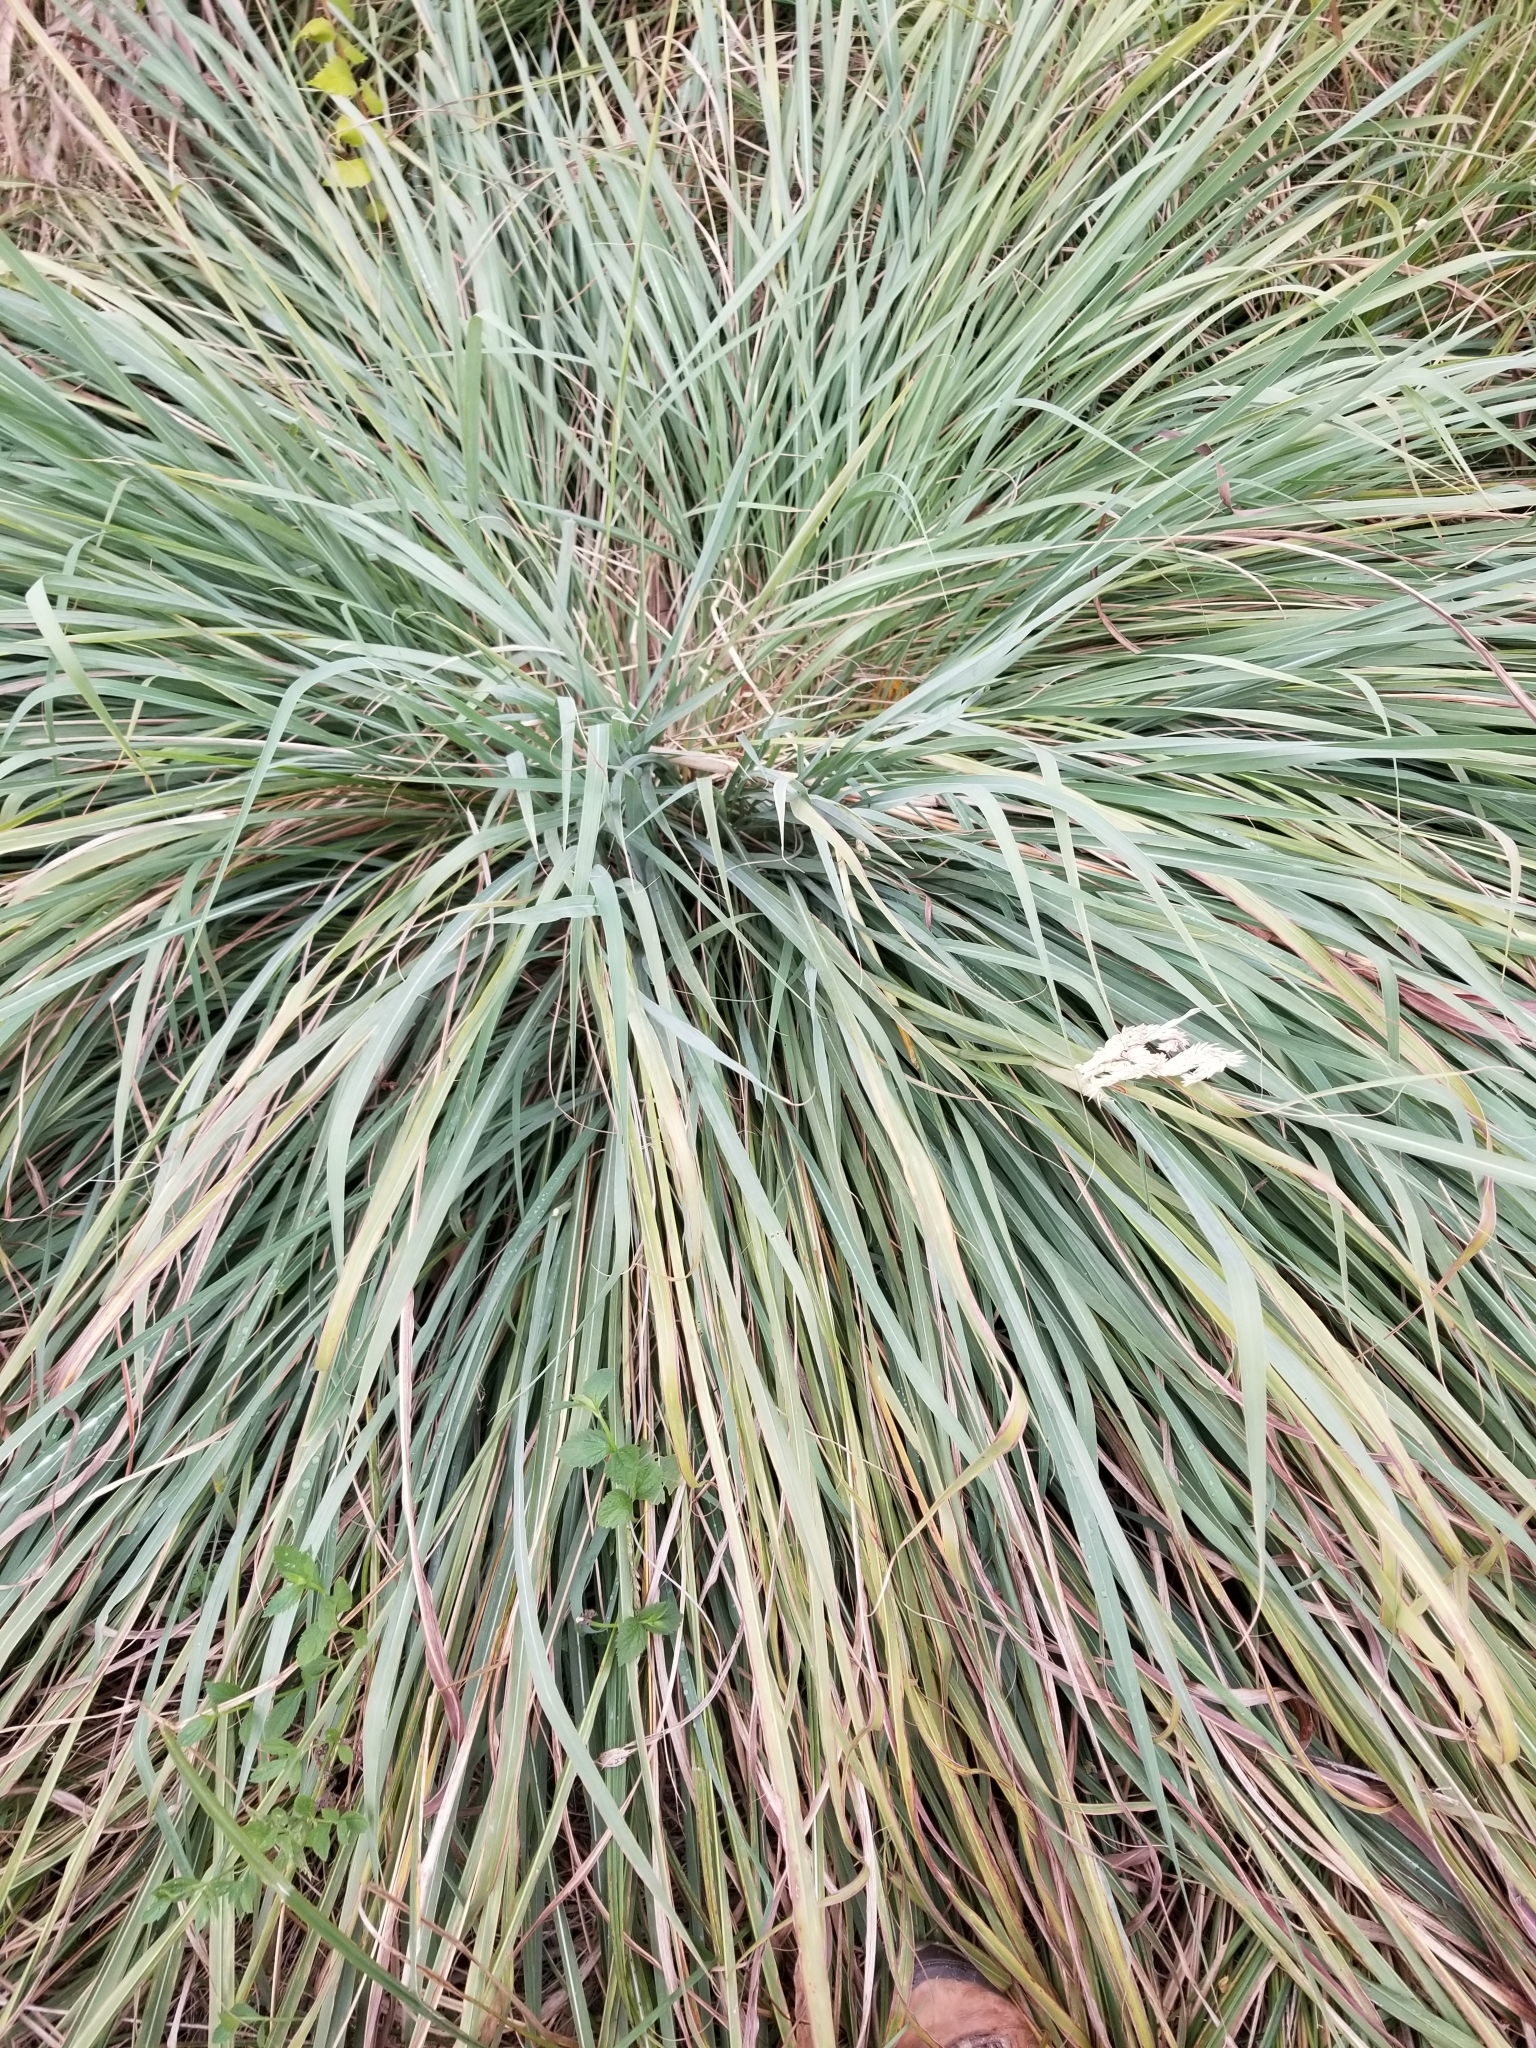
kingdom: Plantae
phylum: Tracheophyta
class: Liliopsida
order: Poales
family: Poaceae
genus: Tripsacum
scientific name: Tripsacum dactyloides
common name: Buffalo-grass
